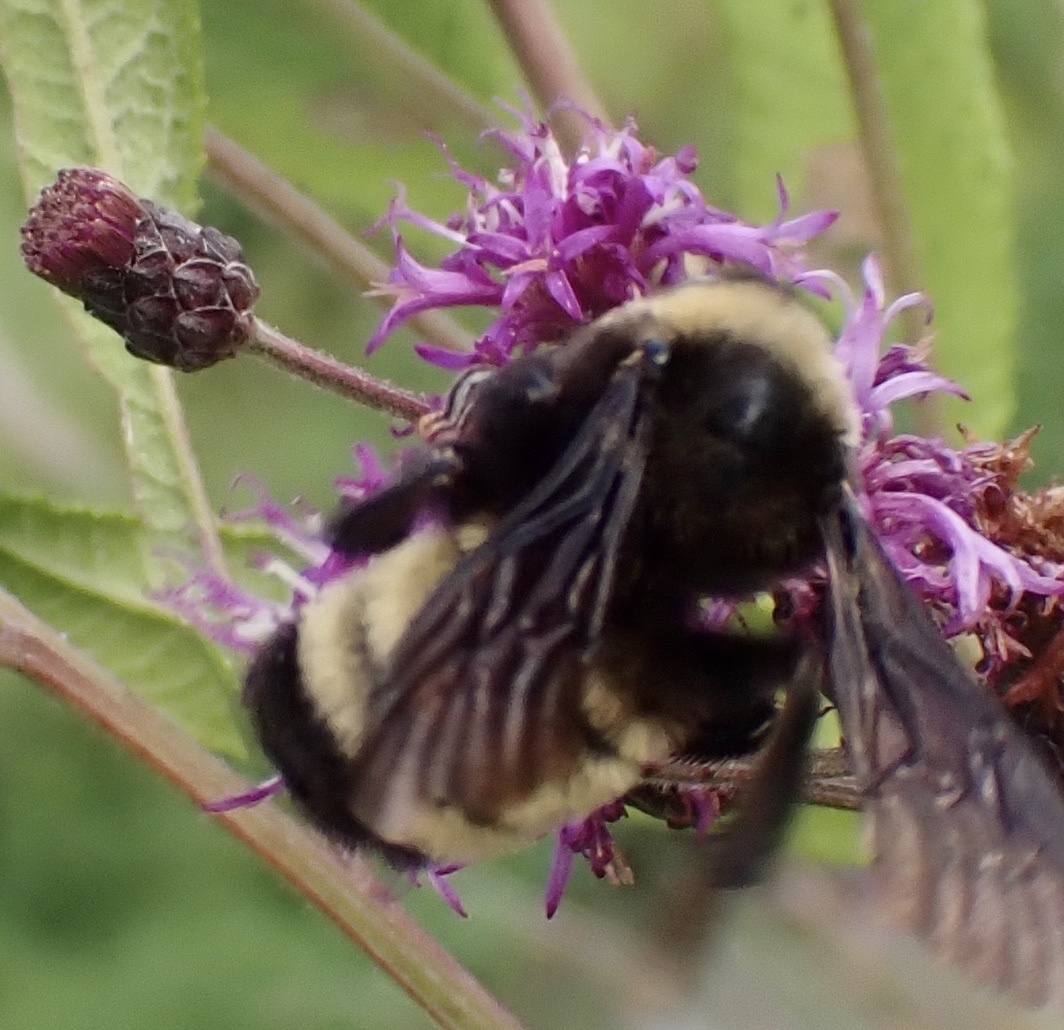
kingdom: Animalia
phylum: Arthropoda
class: Insecta
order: Hymenoptera
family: Apidae
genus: Bombus
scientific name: Bombus pensylvanicus
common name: Bumble bee
